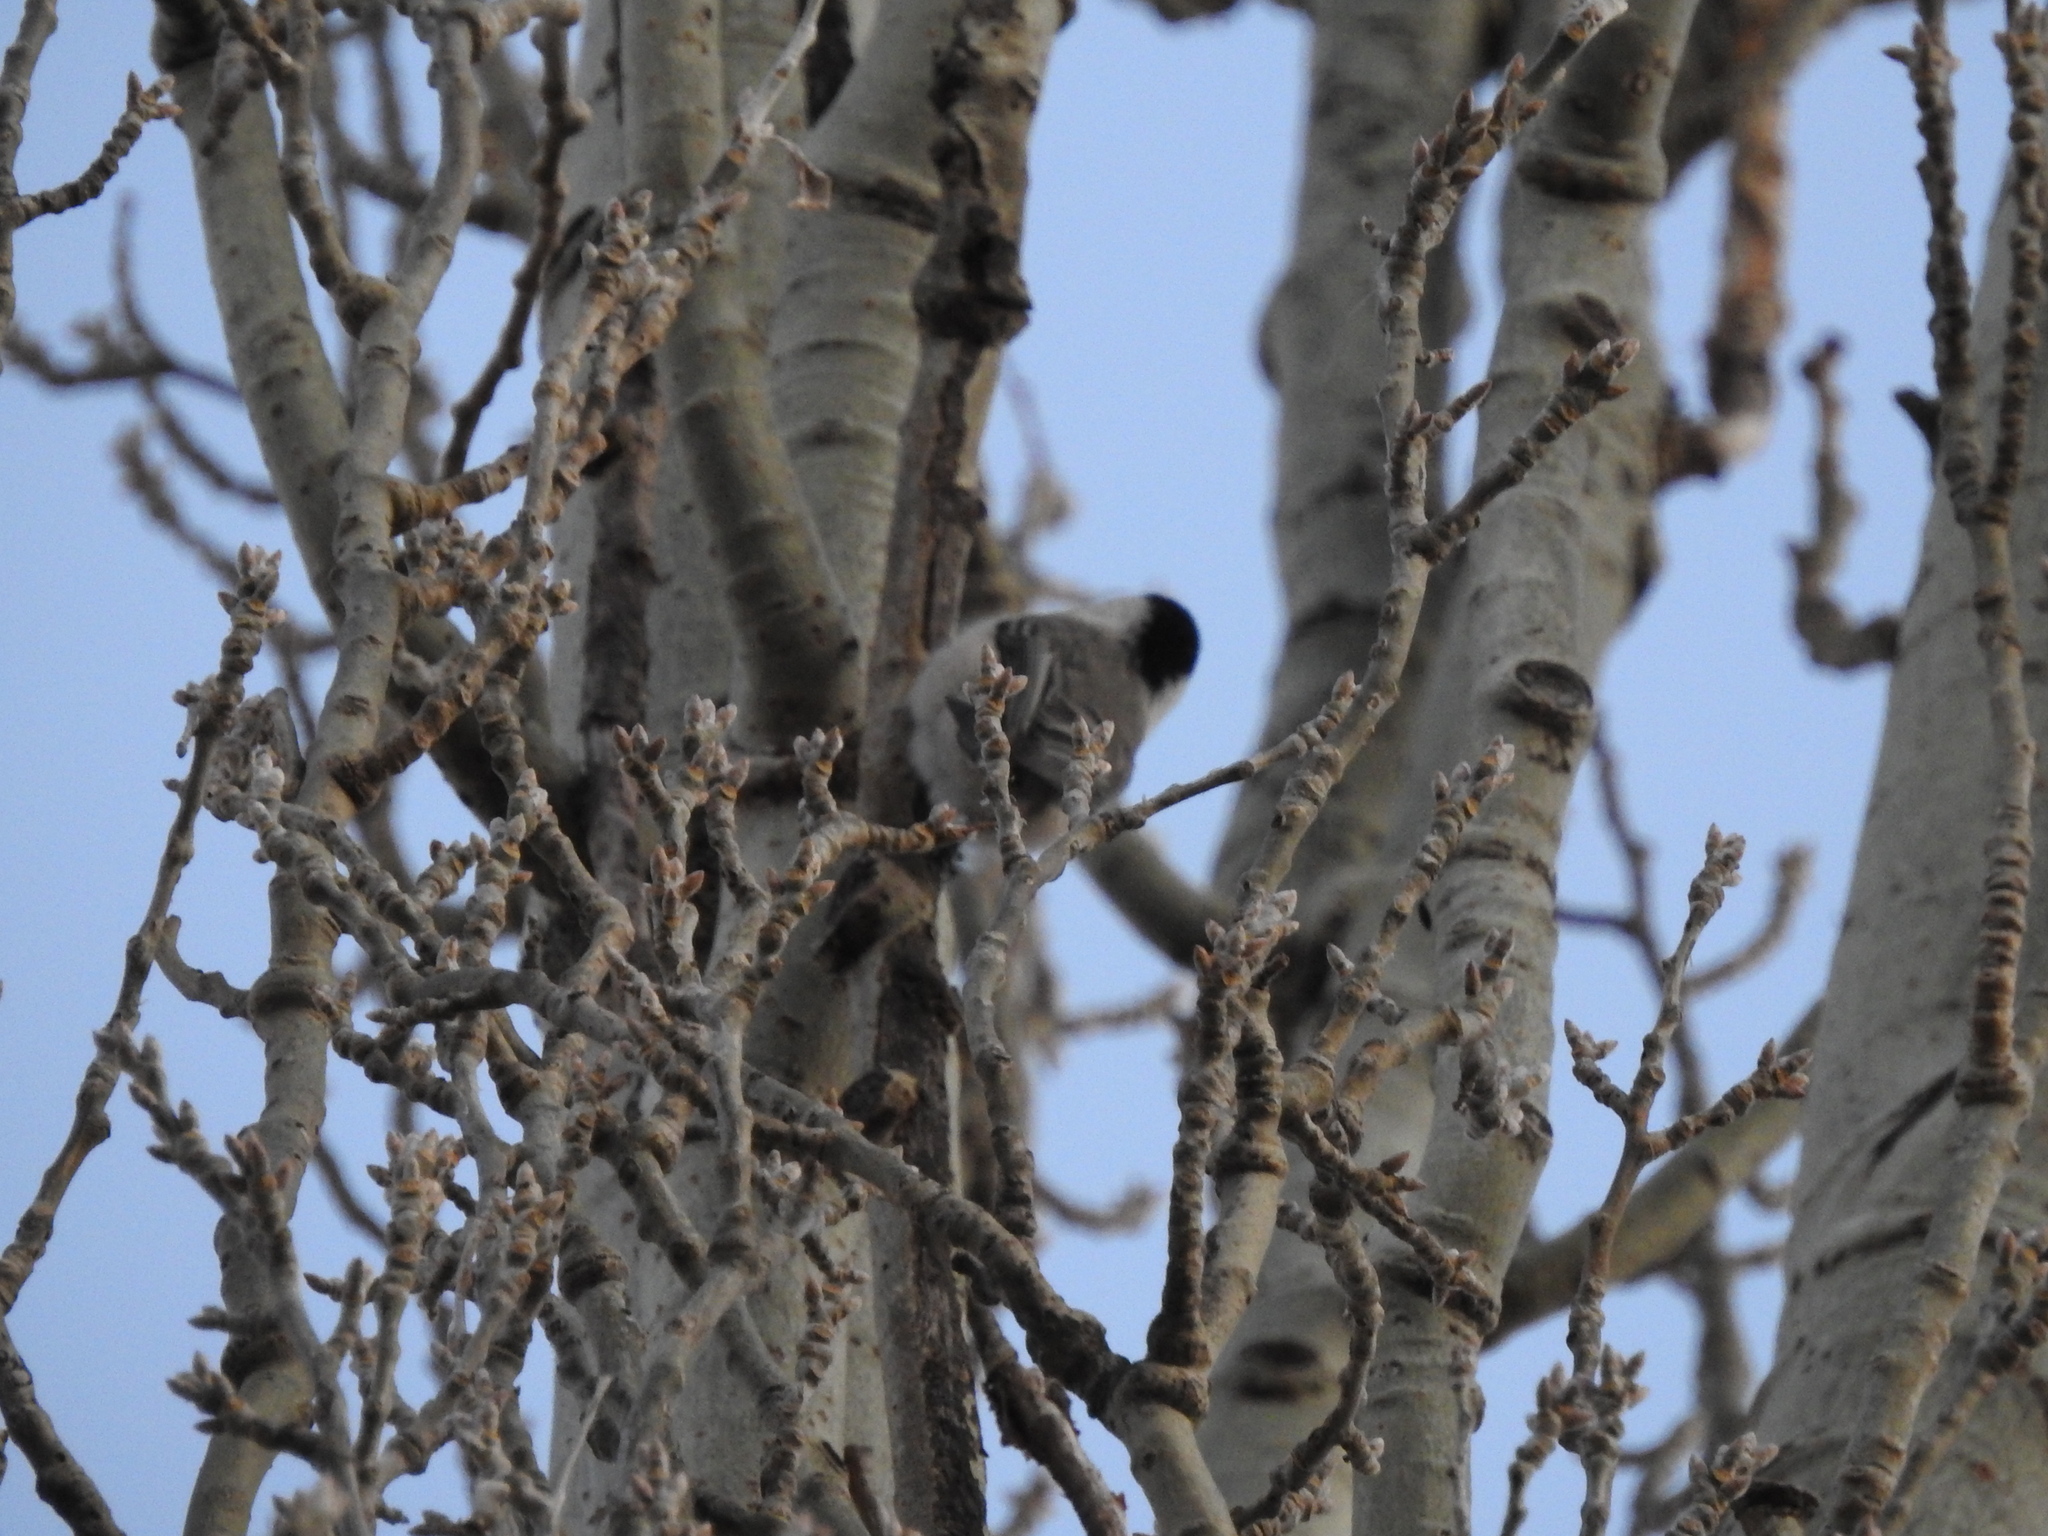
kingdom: Animalia
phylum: Chordata
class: Aves
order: Passeriformes
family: Paridae
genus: Poecile
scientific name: Poecile montanus
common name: Willow tit
